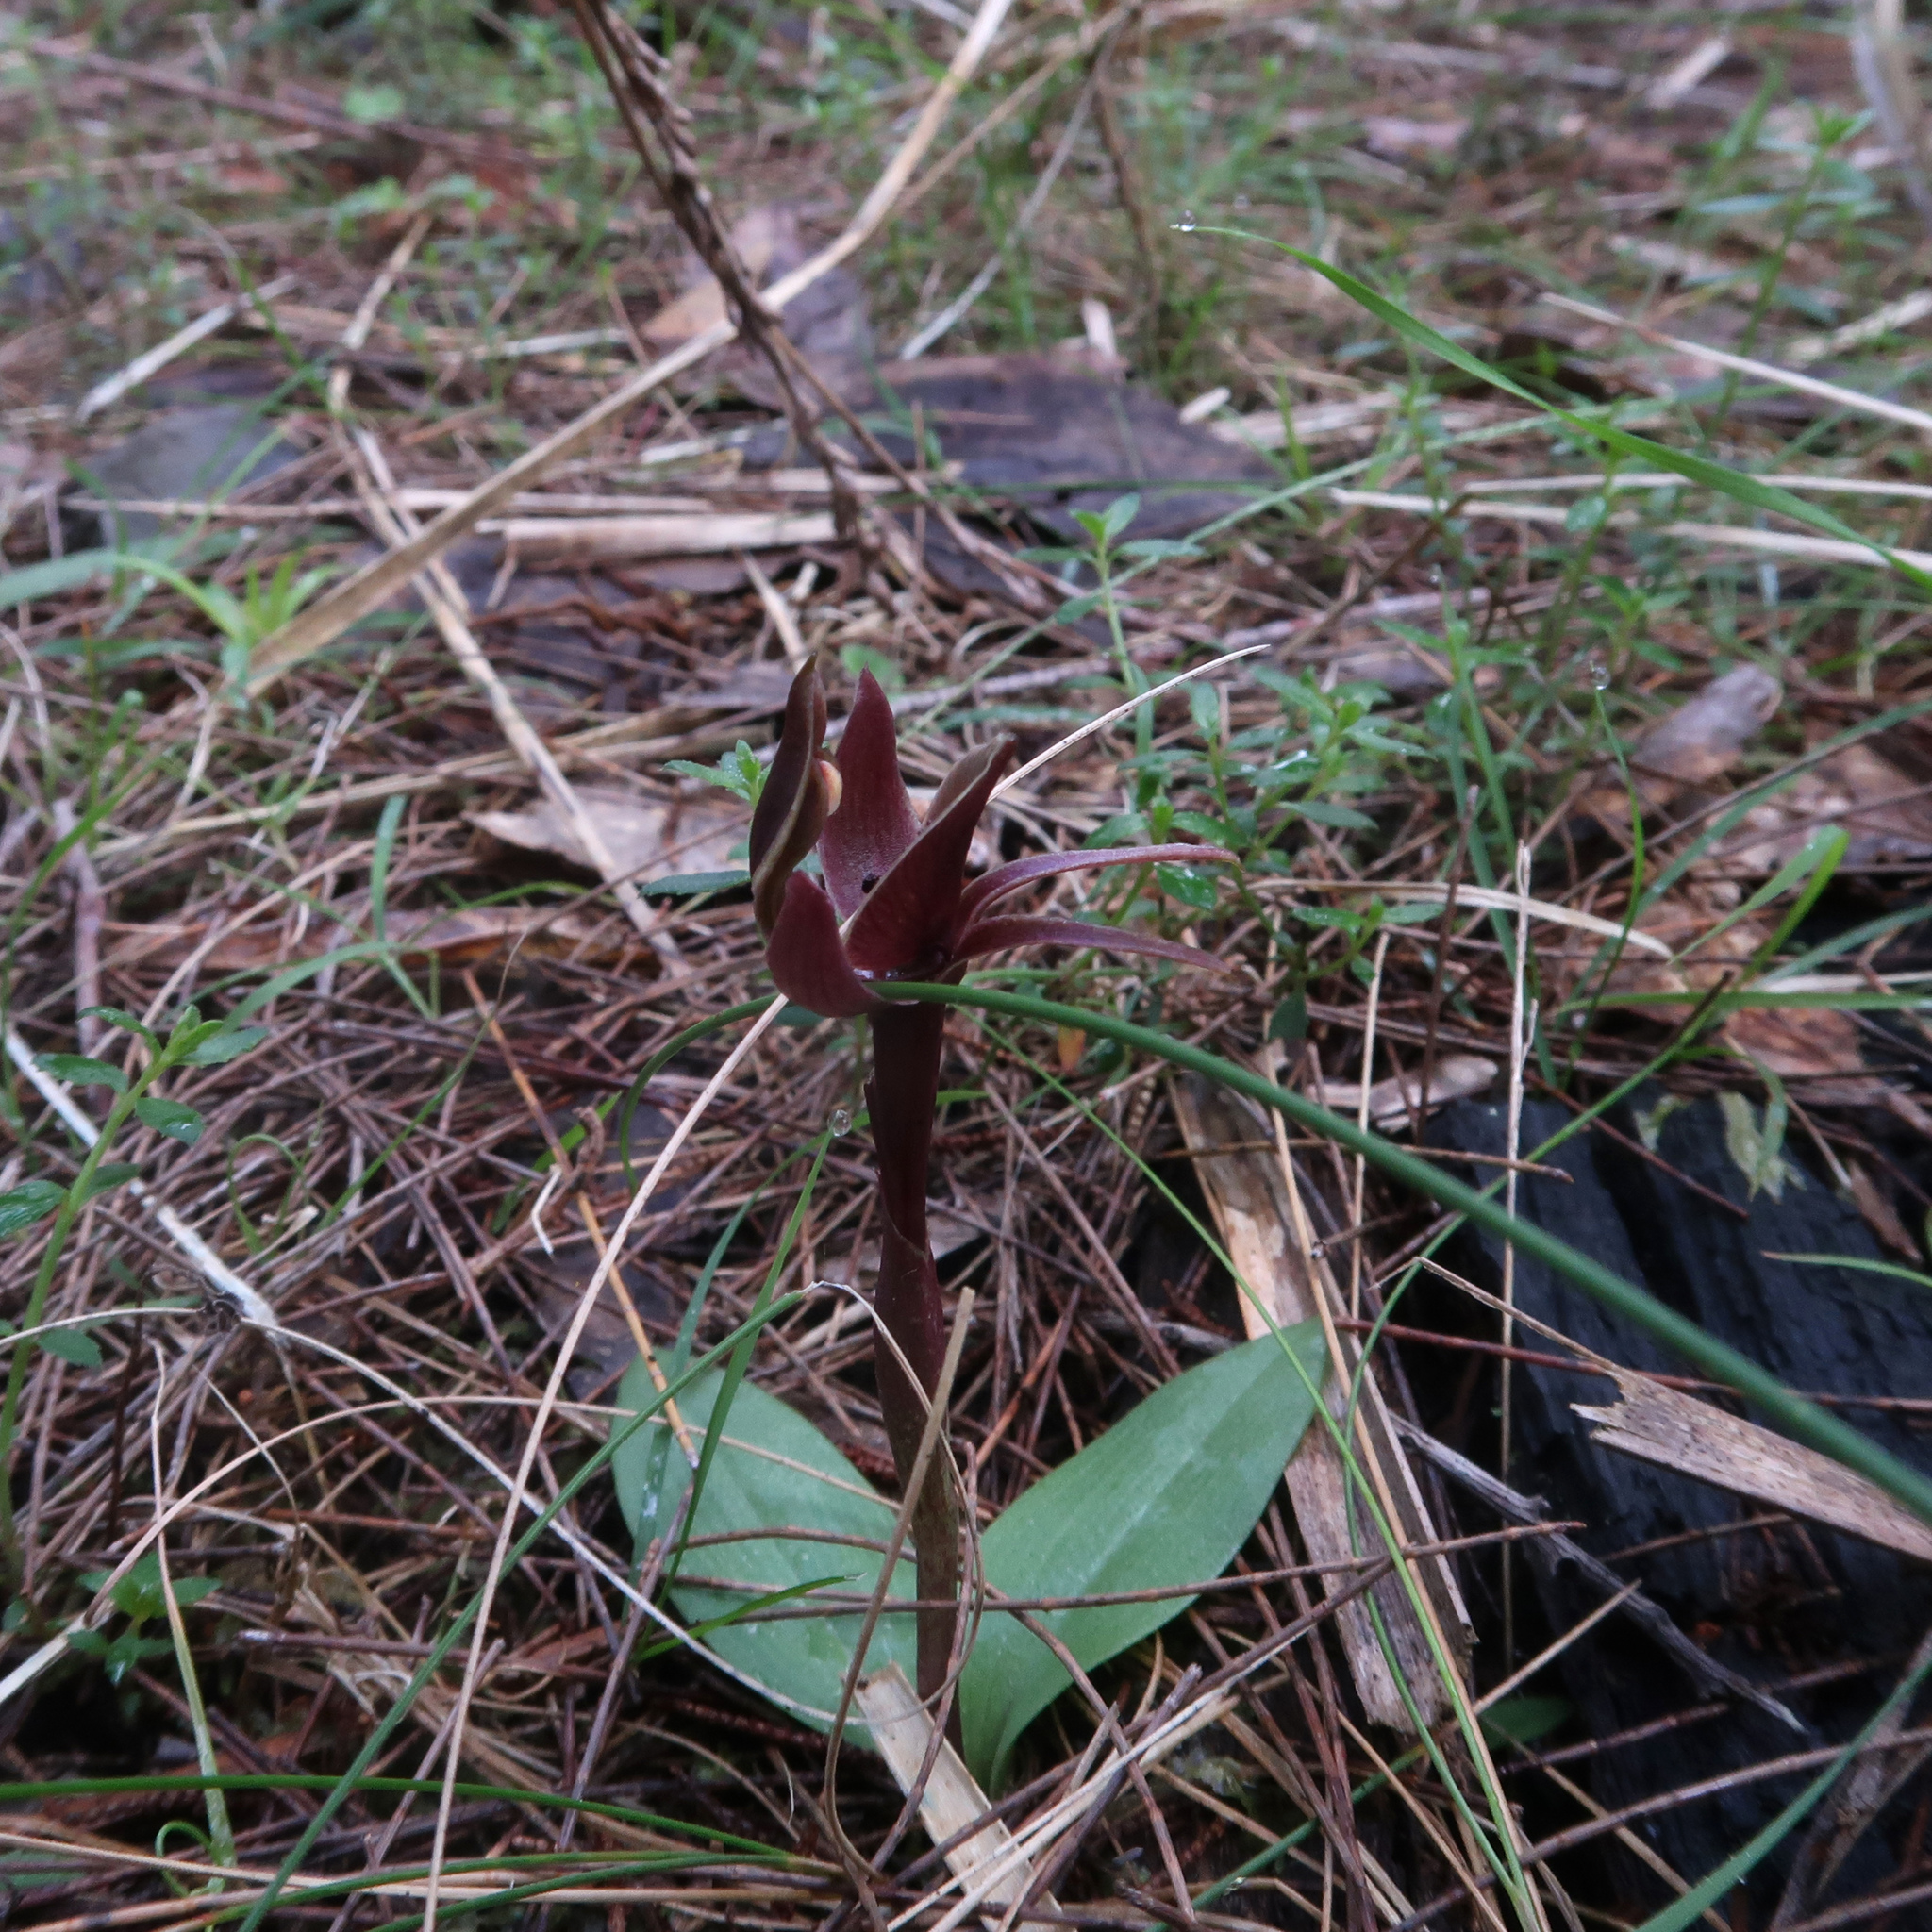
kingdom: Plantae
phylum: Tracheophyta
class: Liliopsida
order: Asparagales
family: Orchidaceae
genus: Chiloglottis
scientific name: Chiloglottis triceratops
